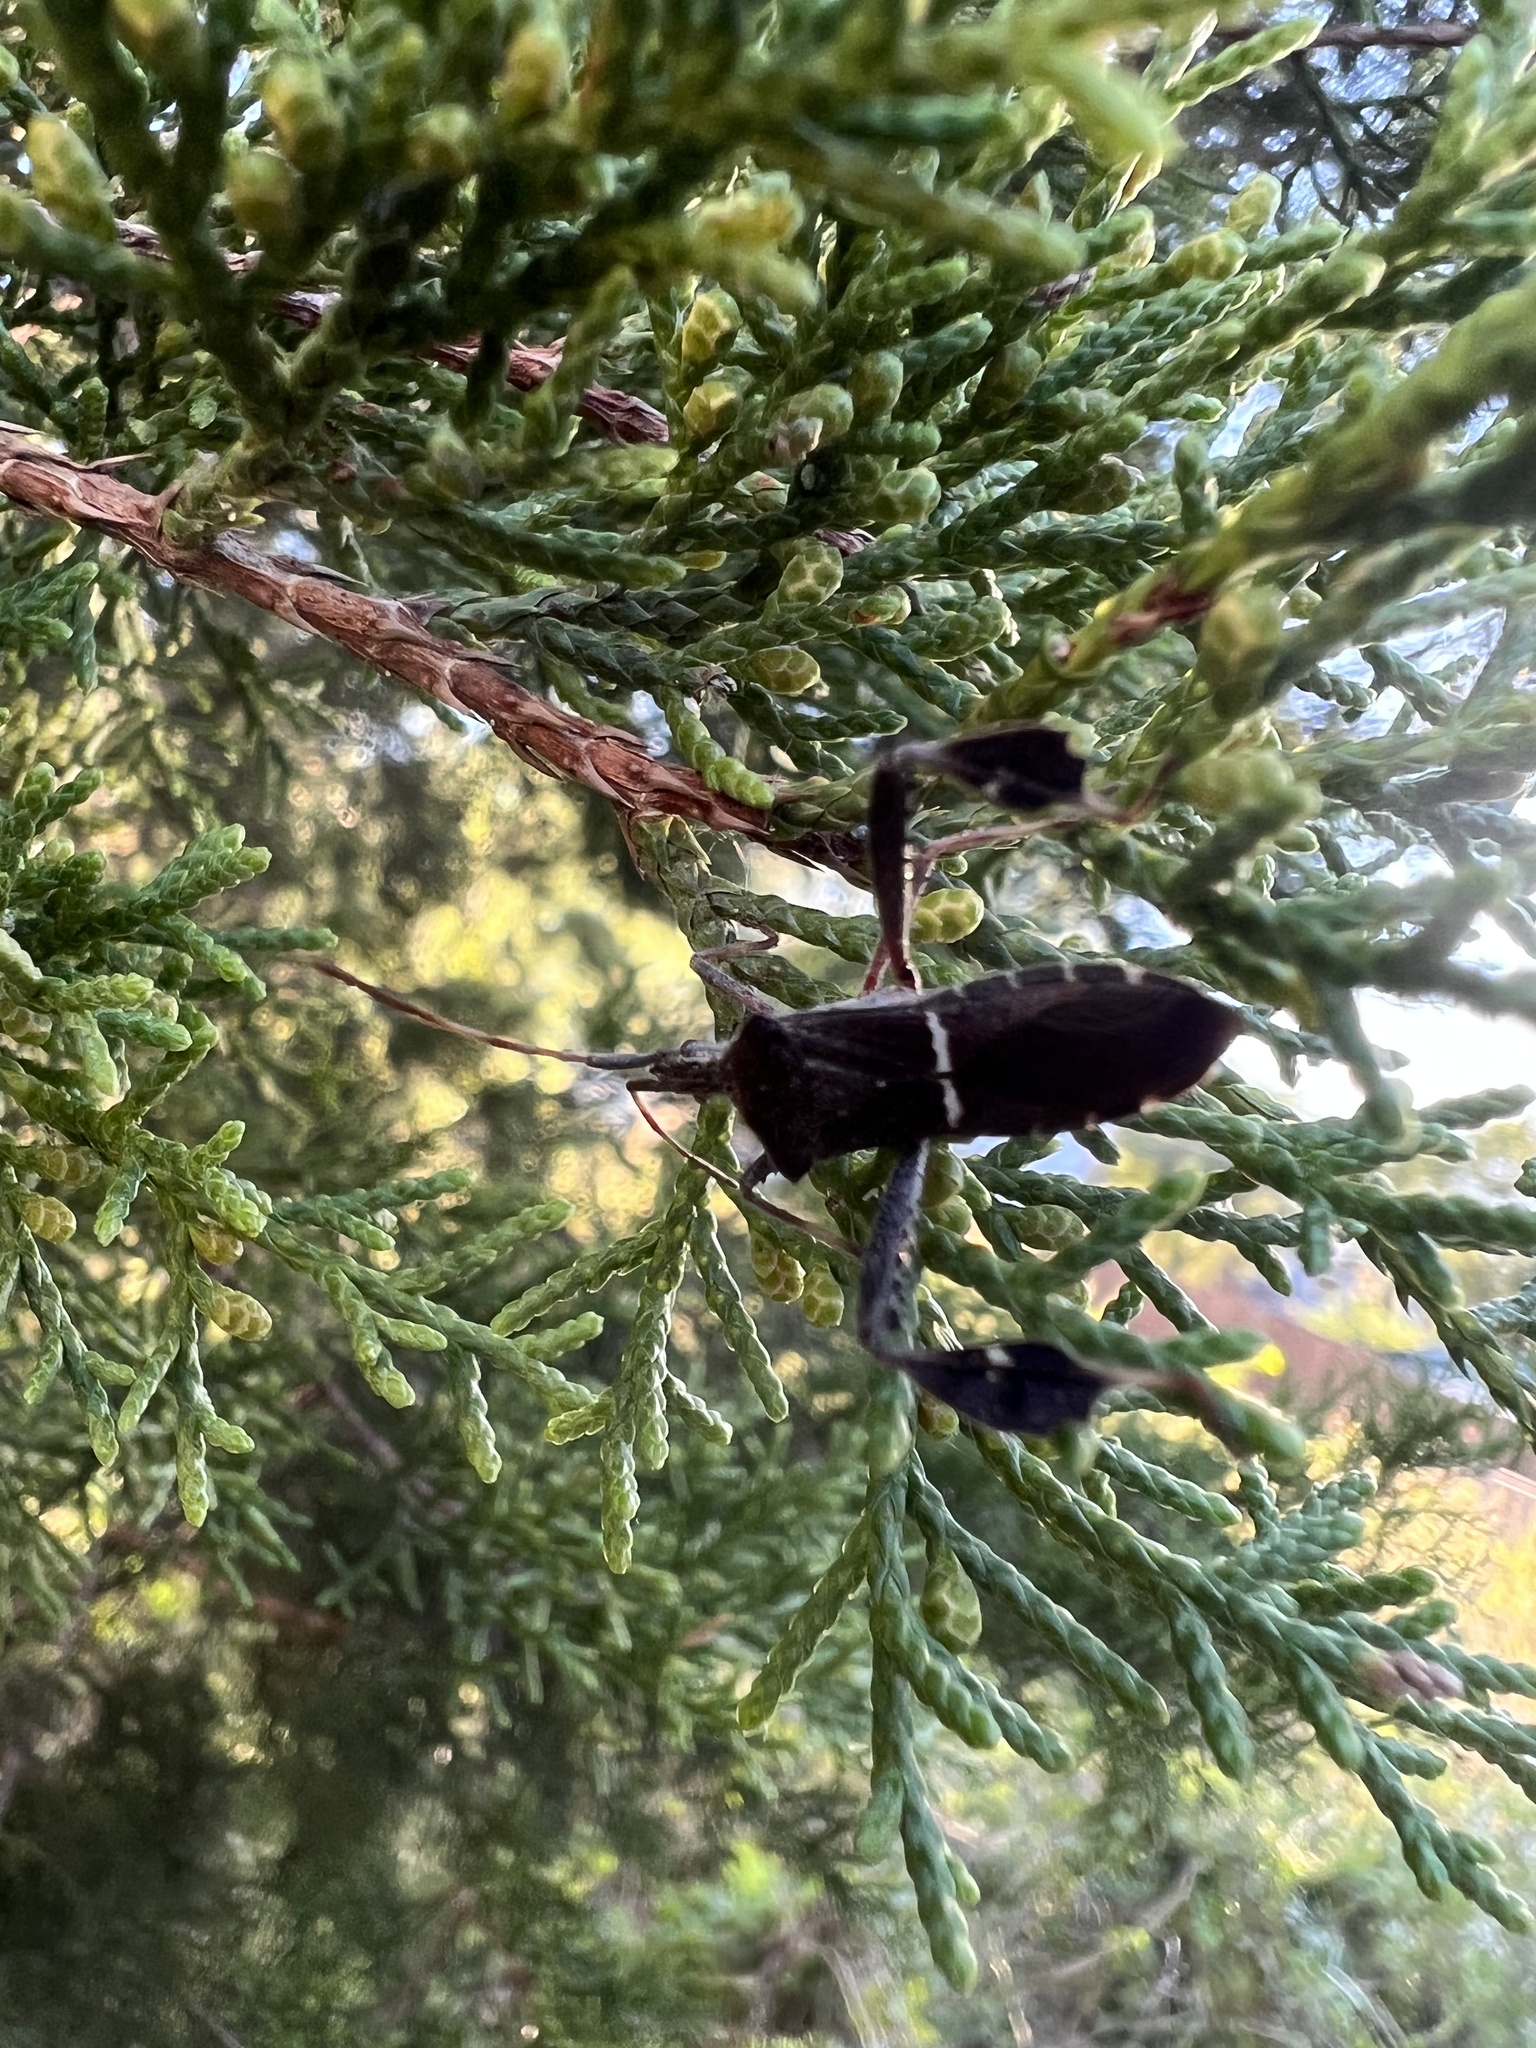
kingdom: Animalia
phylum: Arthropoda
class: Insecta
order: Hemiptera
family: Coreidae
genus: Leptoglossus
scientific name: Leptoglossus phyllopus
